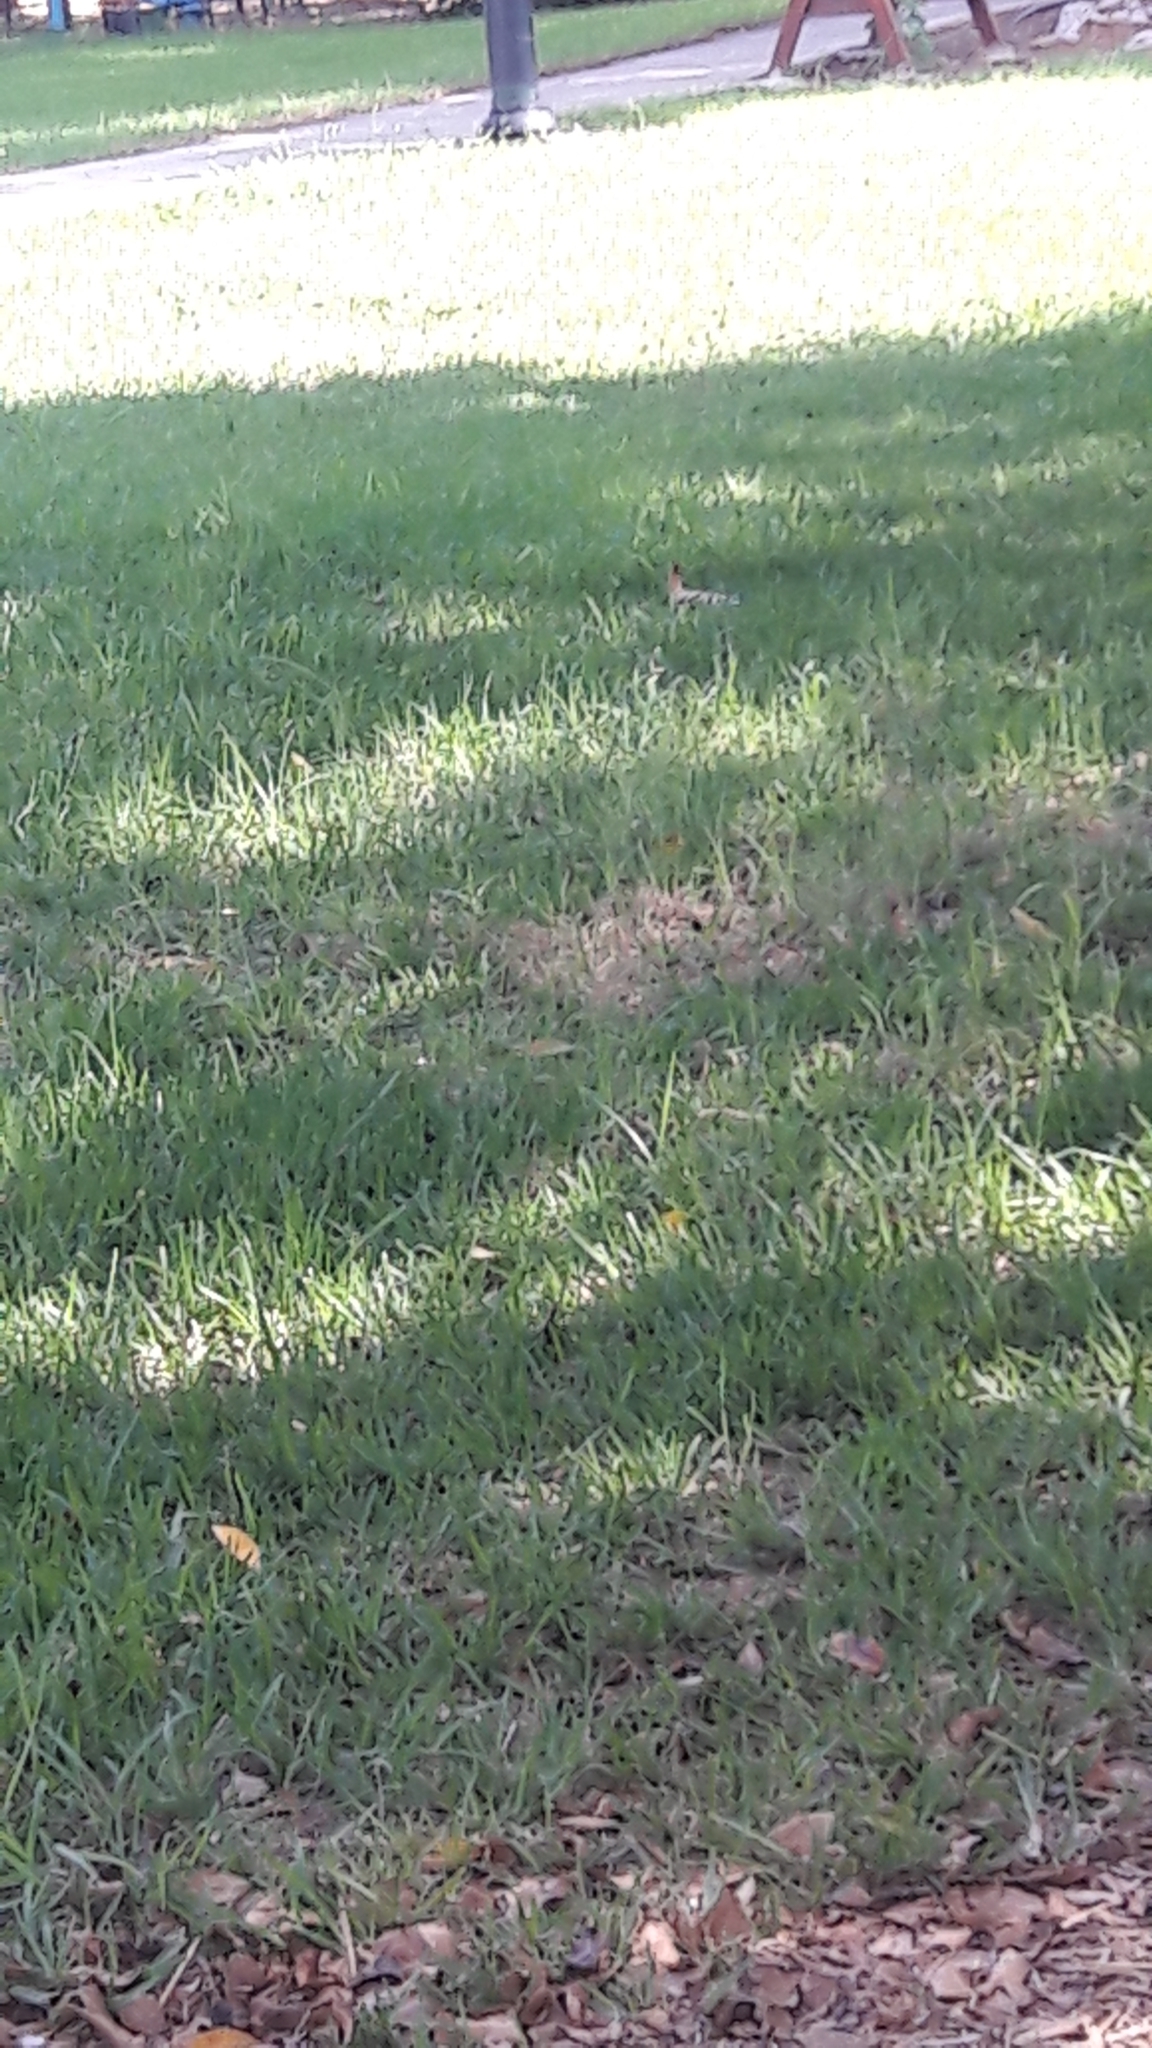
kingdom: Animalia
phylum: Chordata
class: Aves
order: Bucerotiformes
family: Upupidae
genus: Upupa
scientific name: Upupa epops
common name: Eurasian hoopoe
